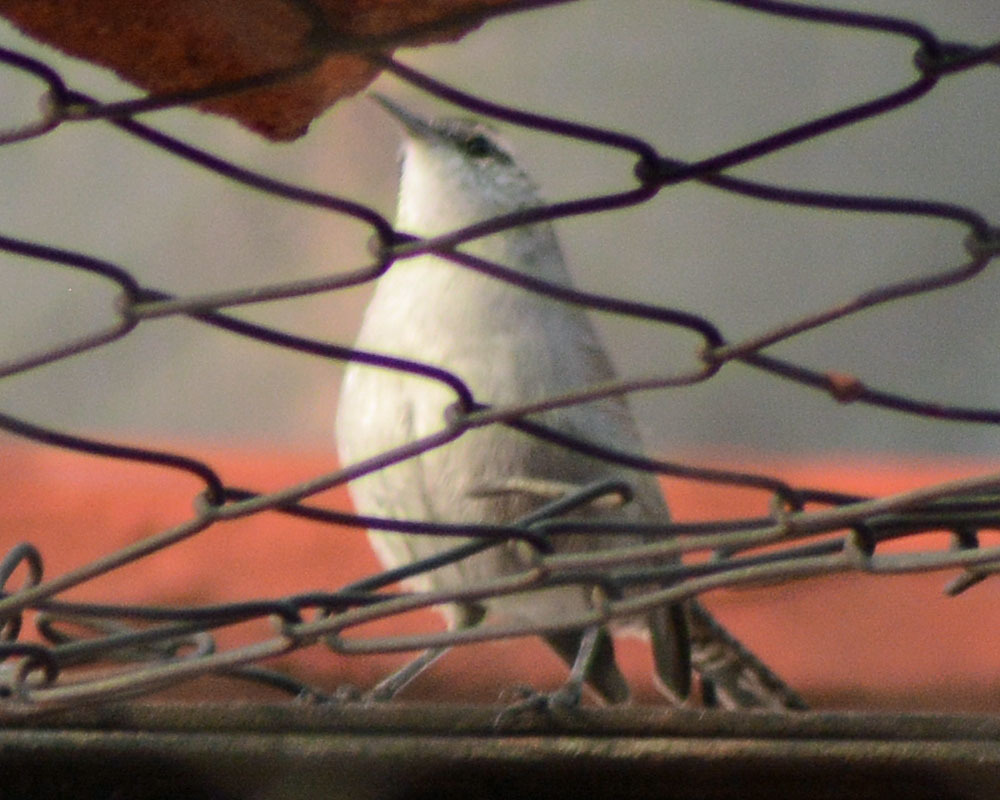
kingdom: Animalia
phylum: Chordata
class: Aves
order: Passeriformes
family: Troglodytidae
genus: Thryomanes
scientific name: Thryomanes bewickii
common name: Bewick's wren
